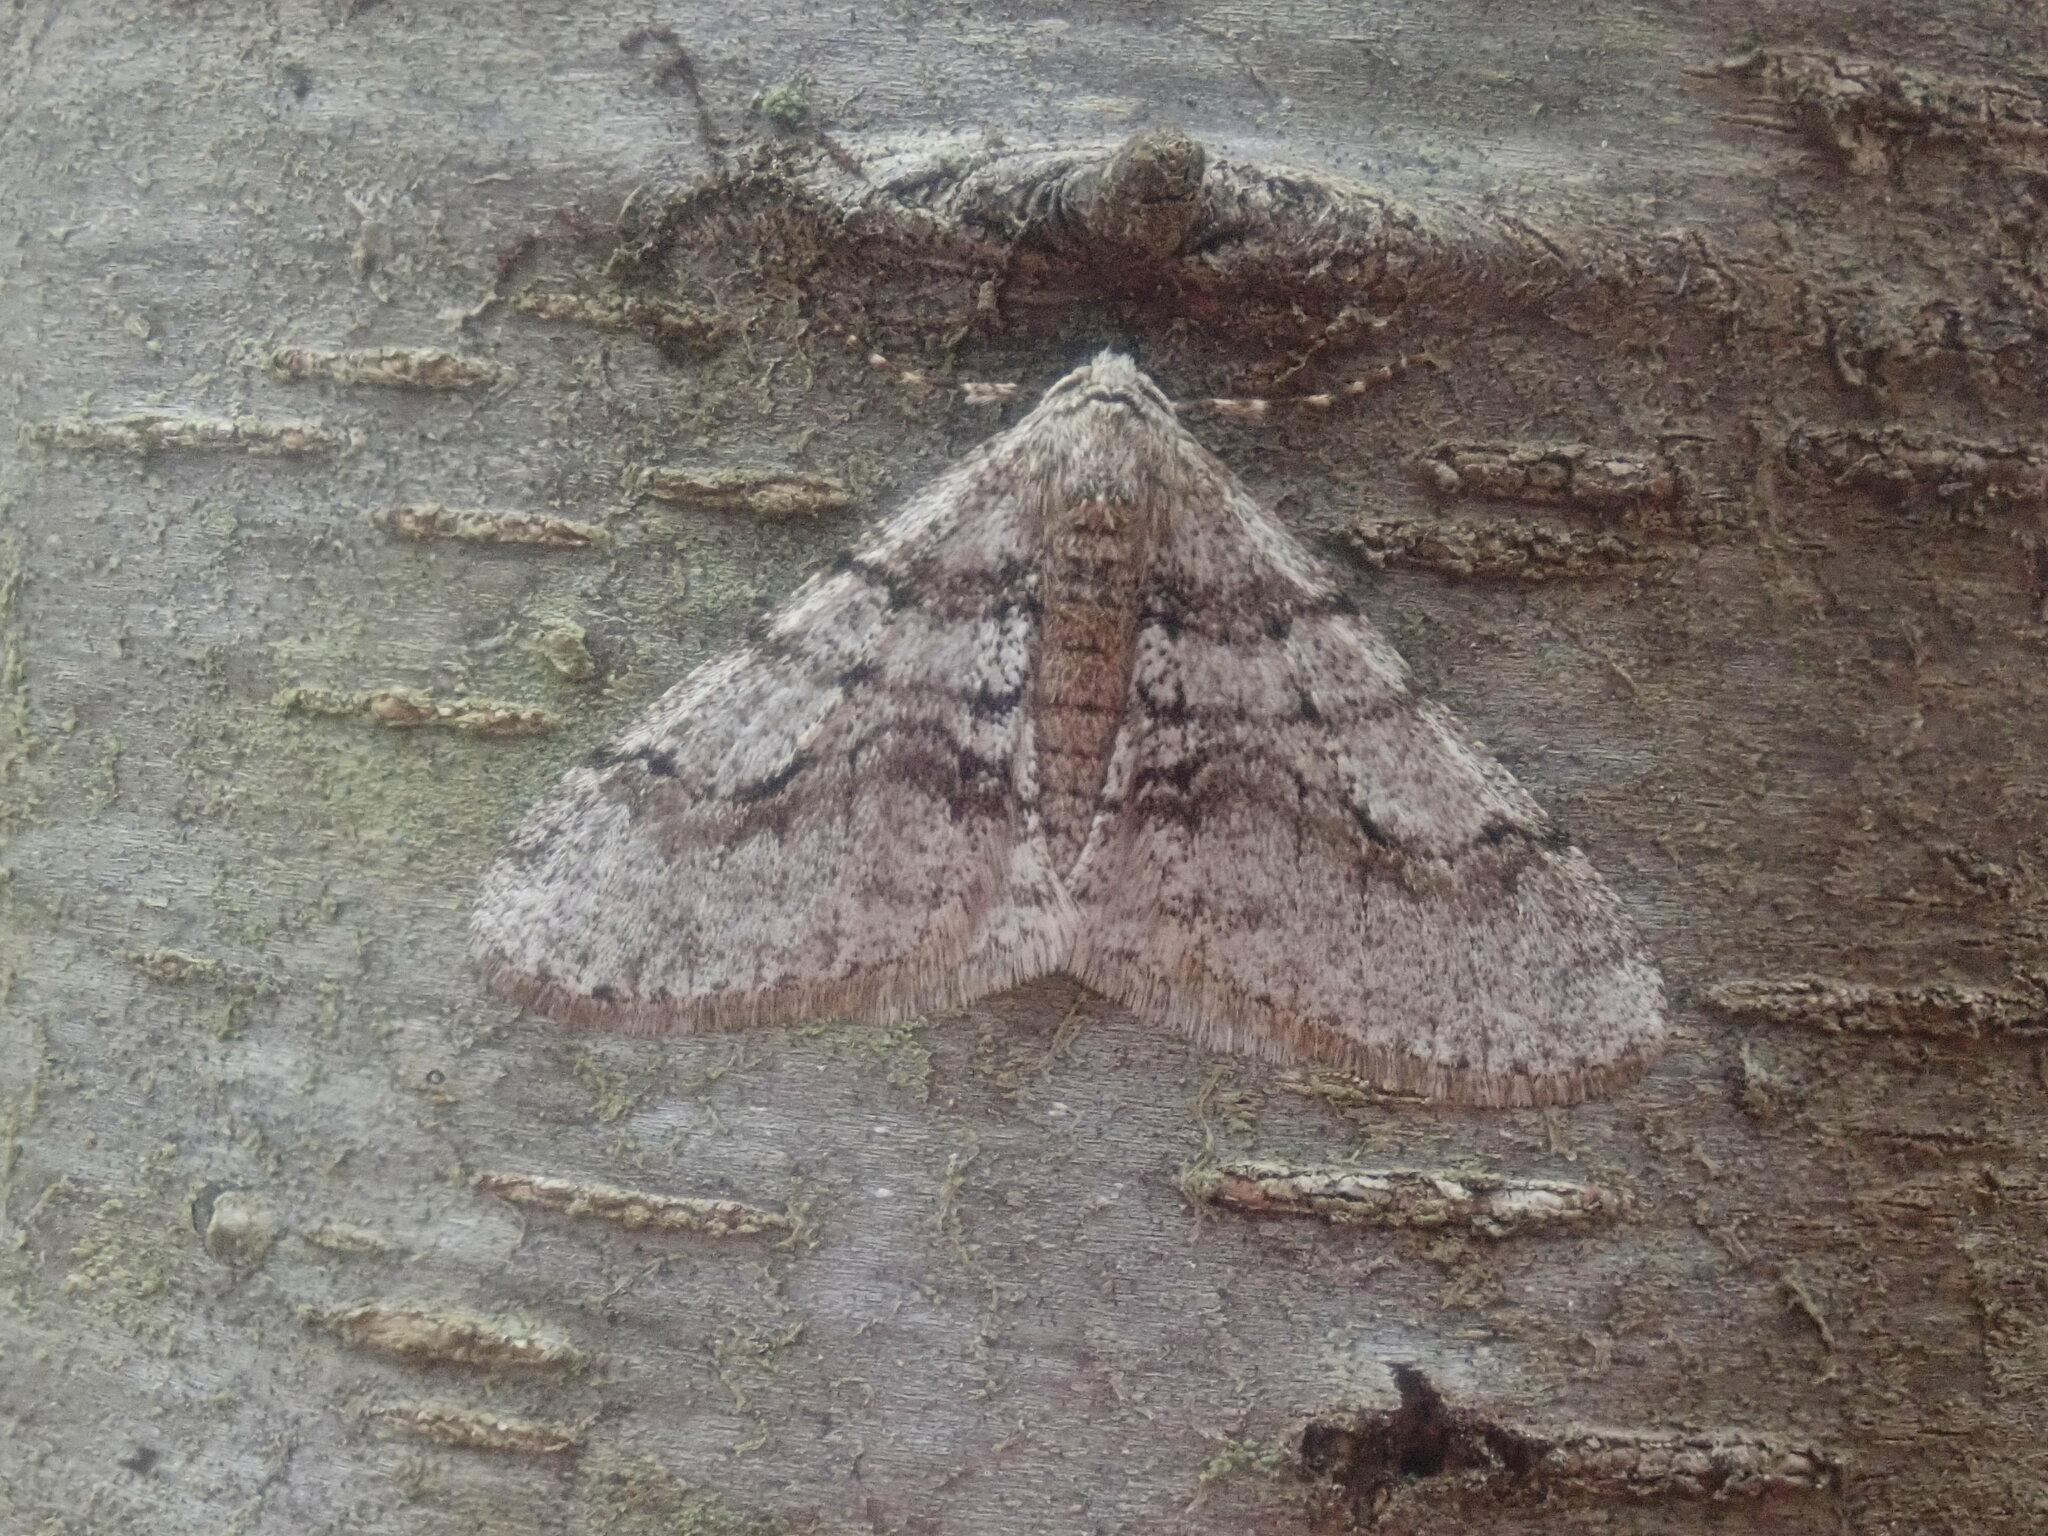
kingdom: Animalia
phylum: Arthropoda
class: Insecta
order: Lepidoptera
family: Geometridae
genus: Phigalia
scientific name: Phigalia titea
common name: Spiny looper
